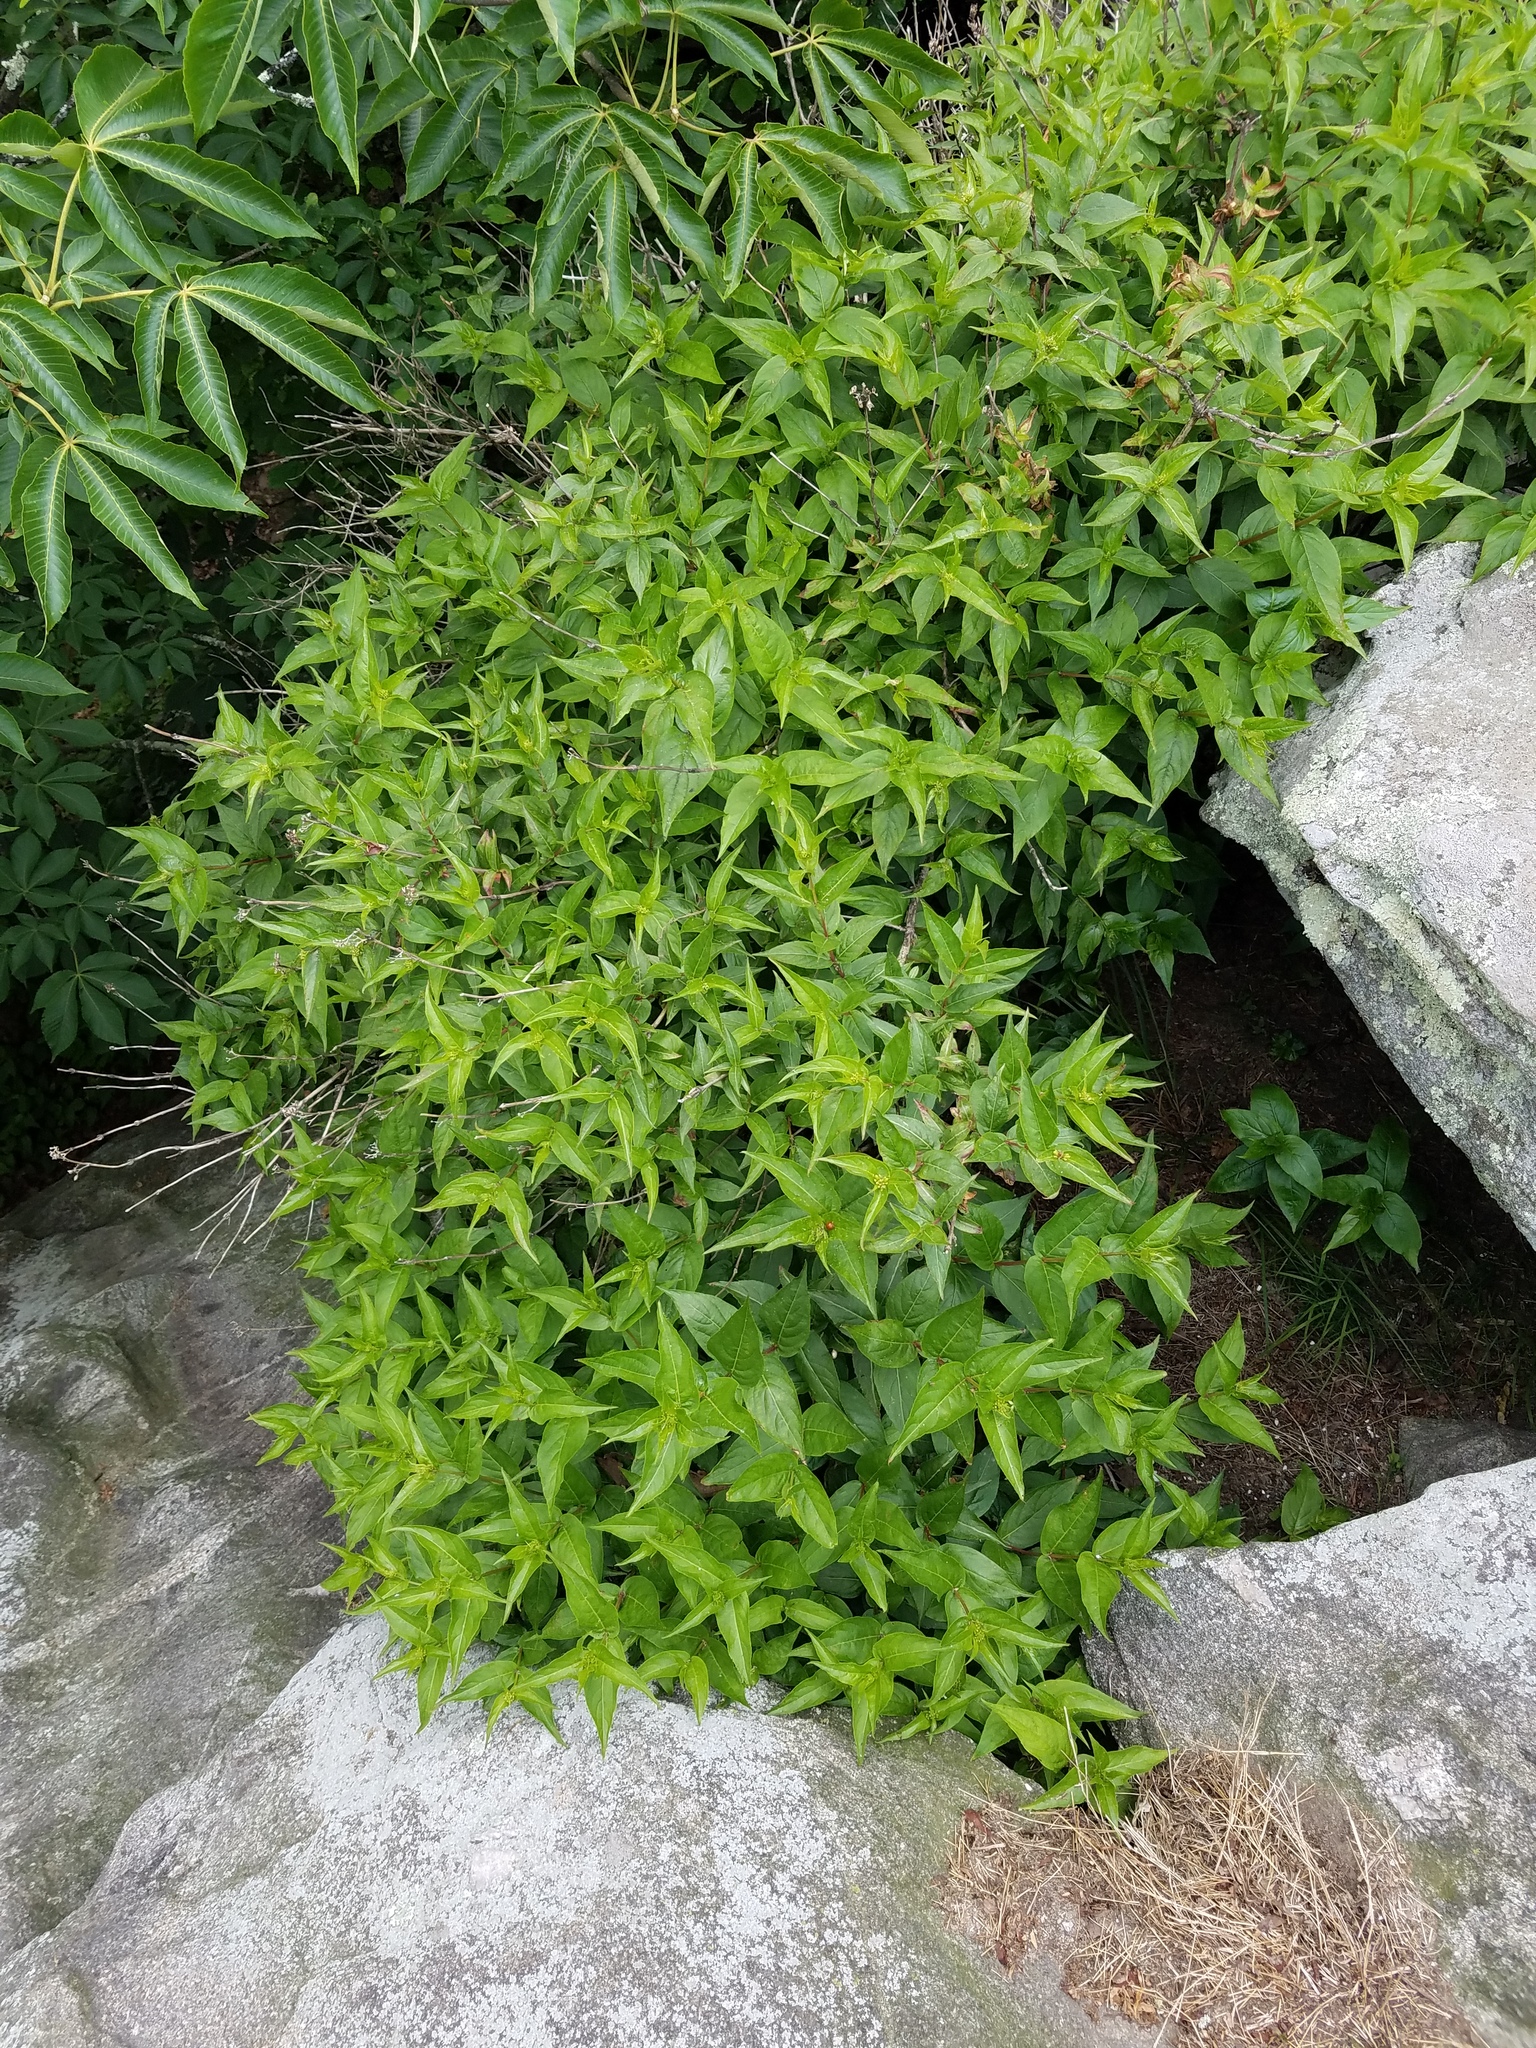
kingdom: Plantae
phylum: Tracheophyta
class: Magnoliopsida
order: Dipsacales
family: Caprifoliaceae
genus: Diervilla
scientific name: Diervilla sessilifolia
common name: Bush-honeysuckle
